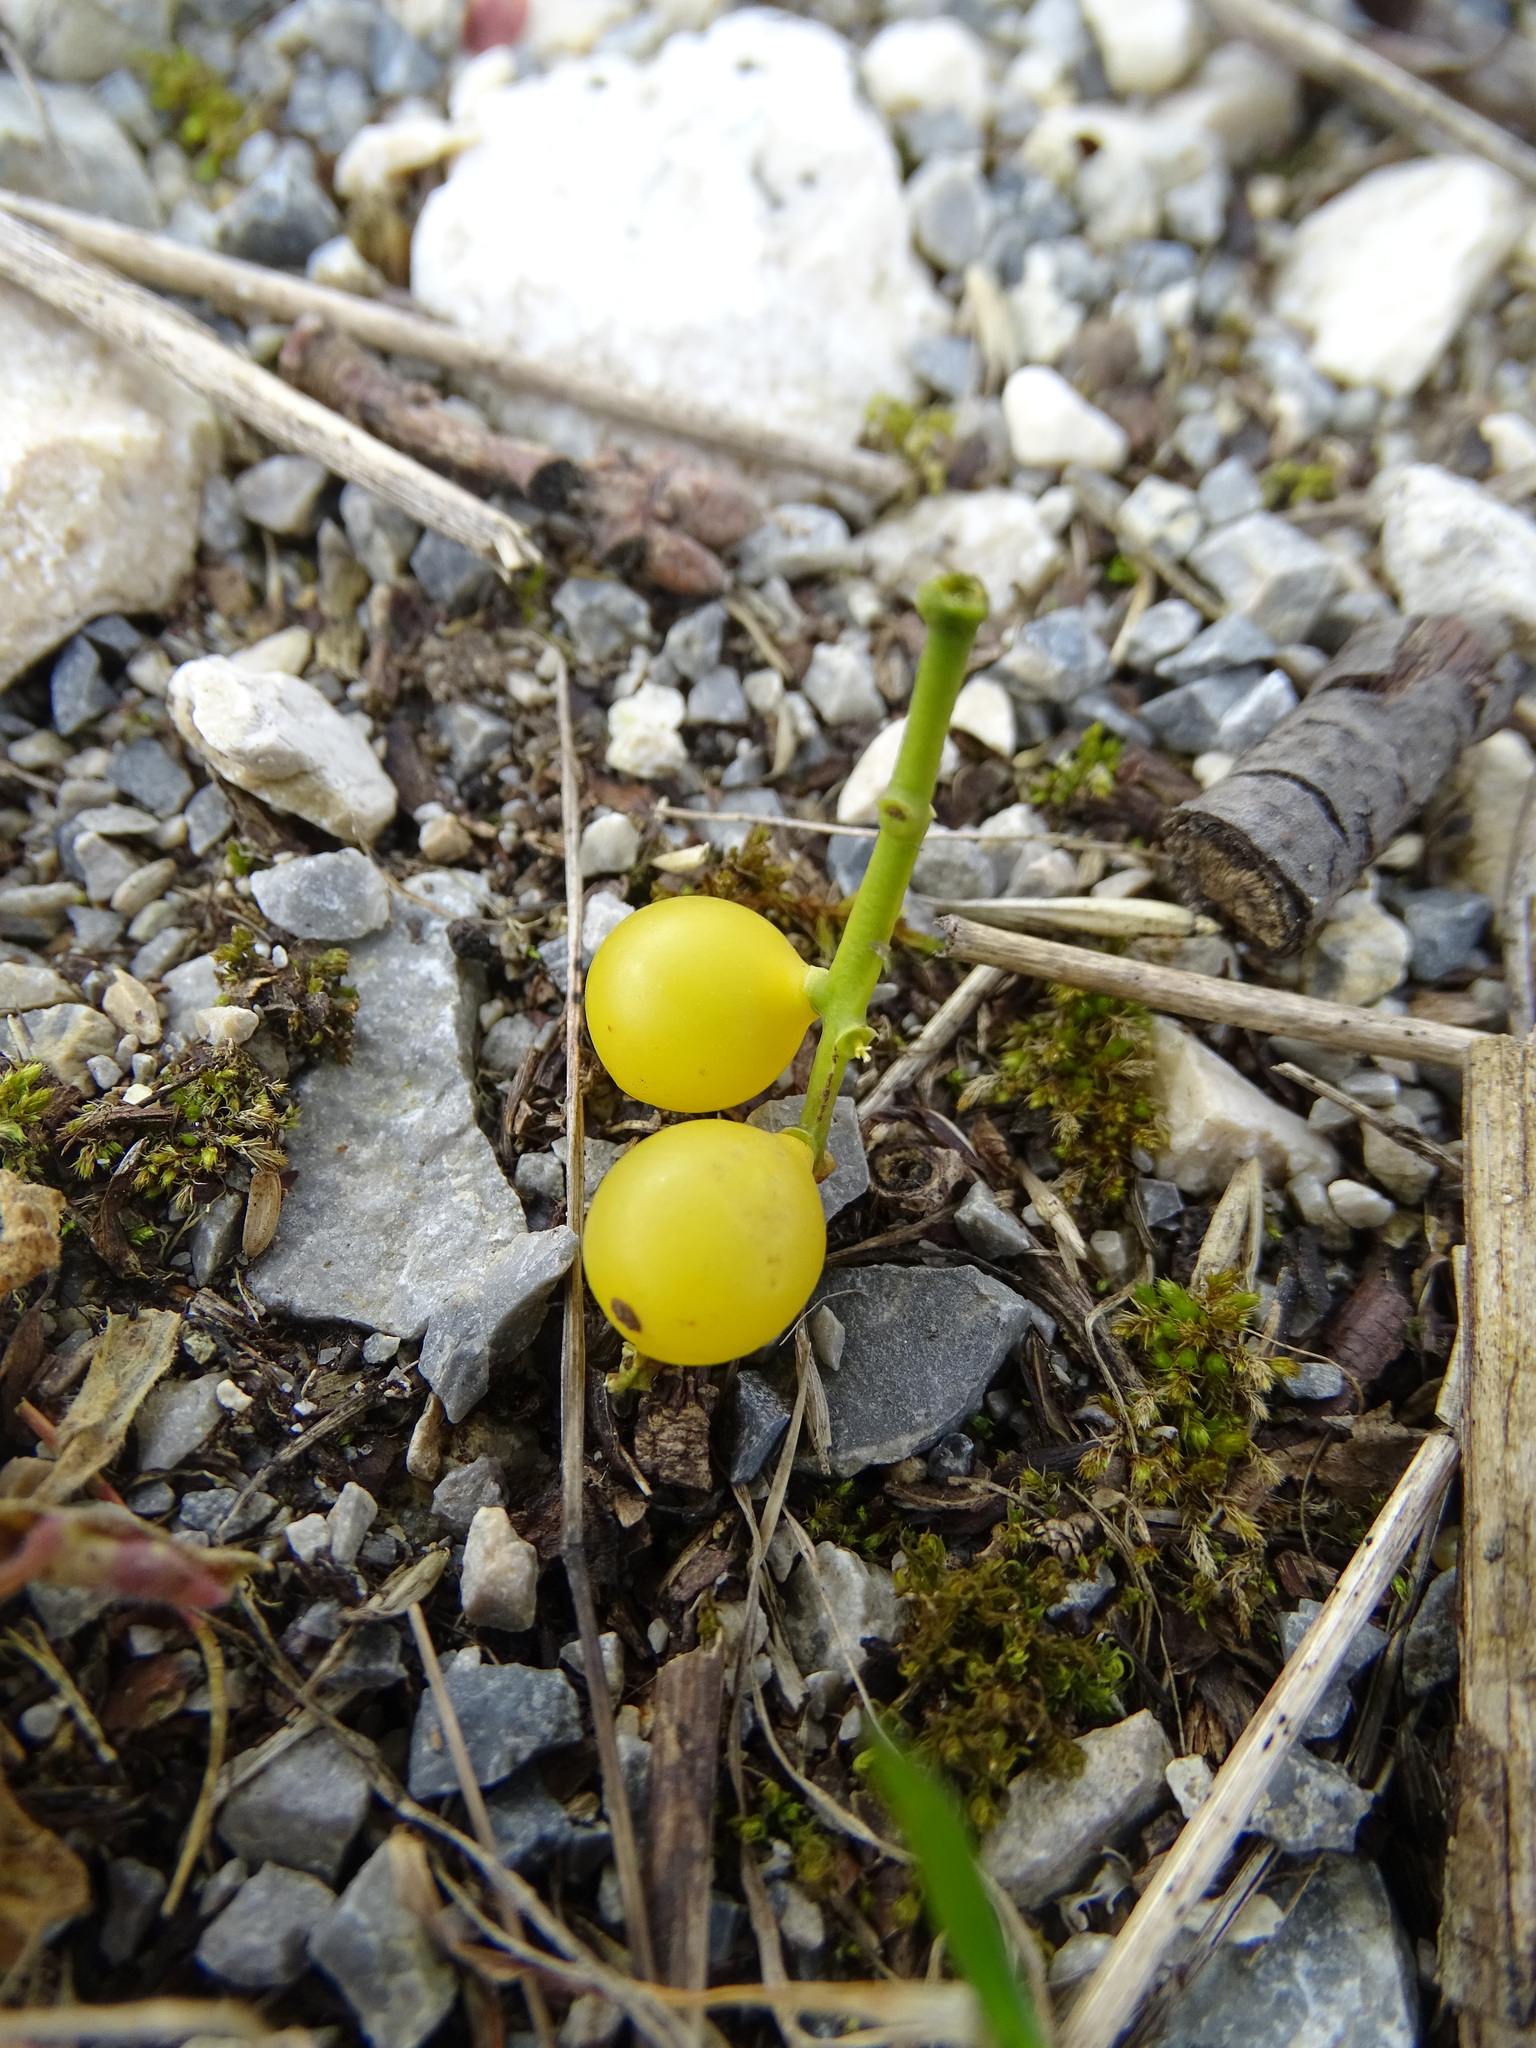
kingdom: Plantae
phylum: Tracheophyta
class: Magnoliopsida
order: Santalales
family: Loranthaceae
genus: Loranthus
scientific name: Loranthus europaeus
